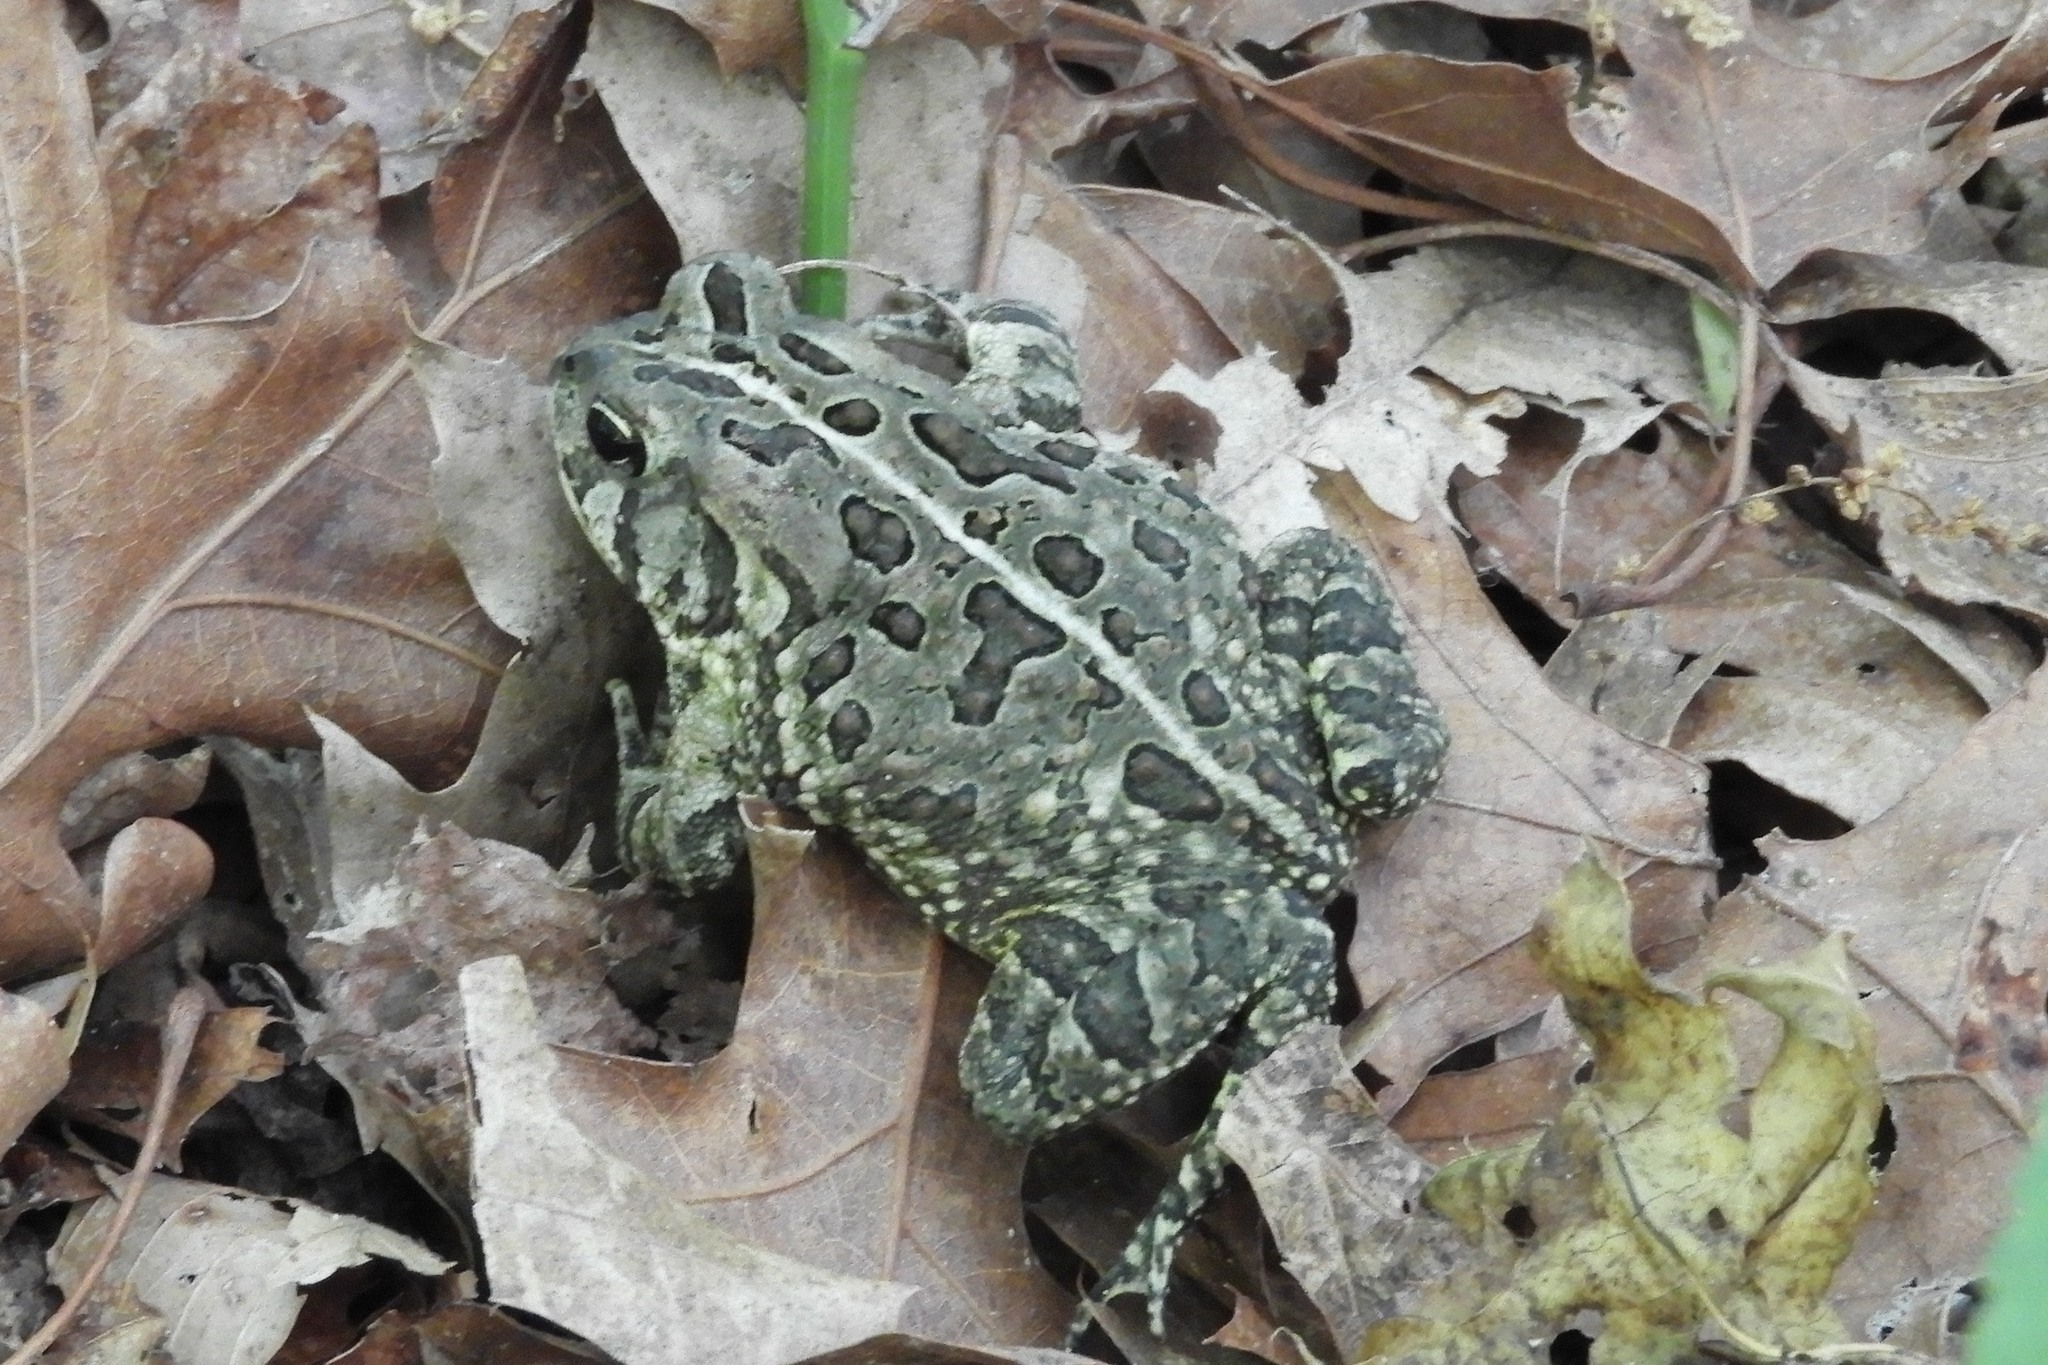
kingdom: Animalia
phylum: Chordata
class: Amphibia
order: Anura
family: Bufonidae
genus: Anaxyrus
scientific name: Anaxyrus fowleri
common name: Fowler's toad
